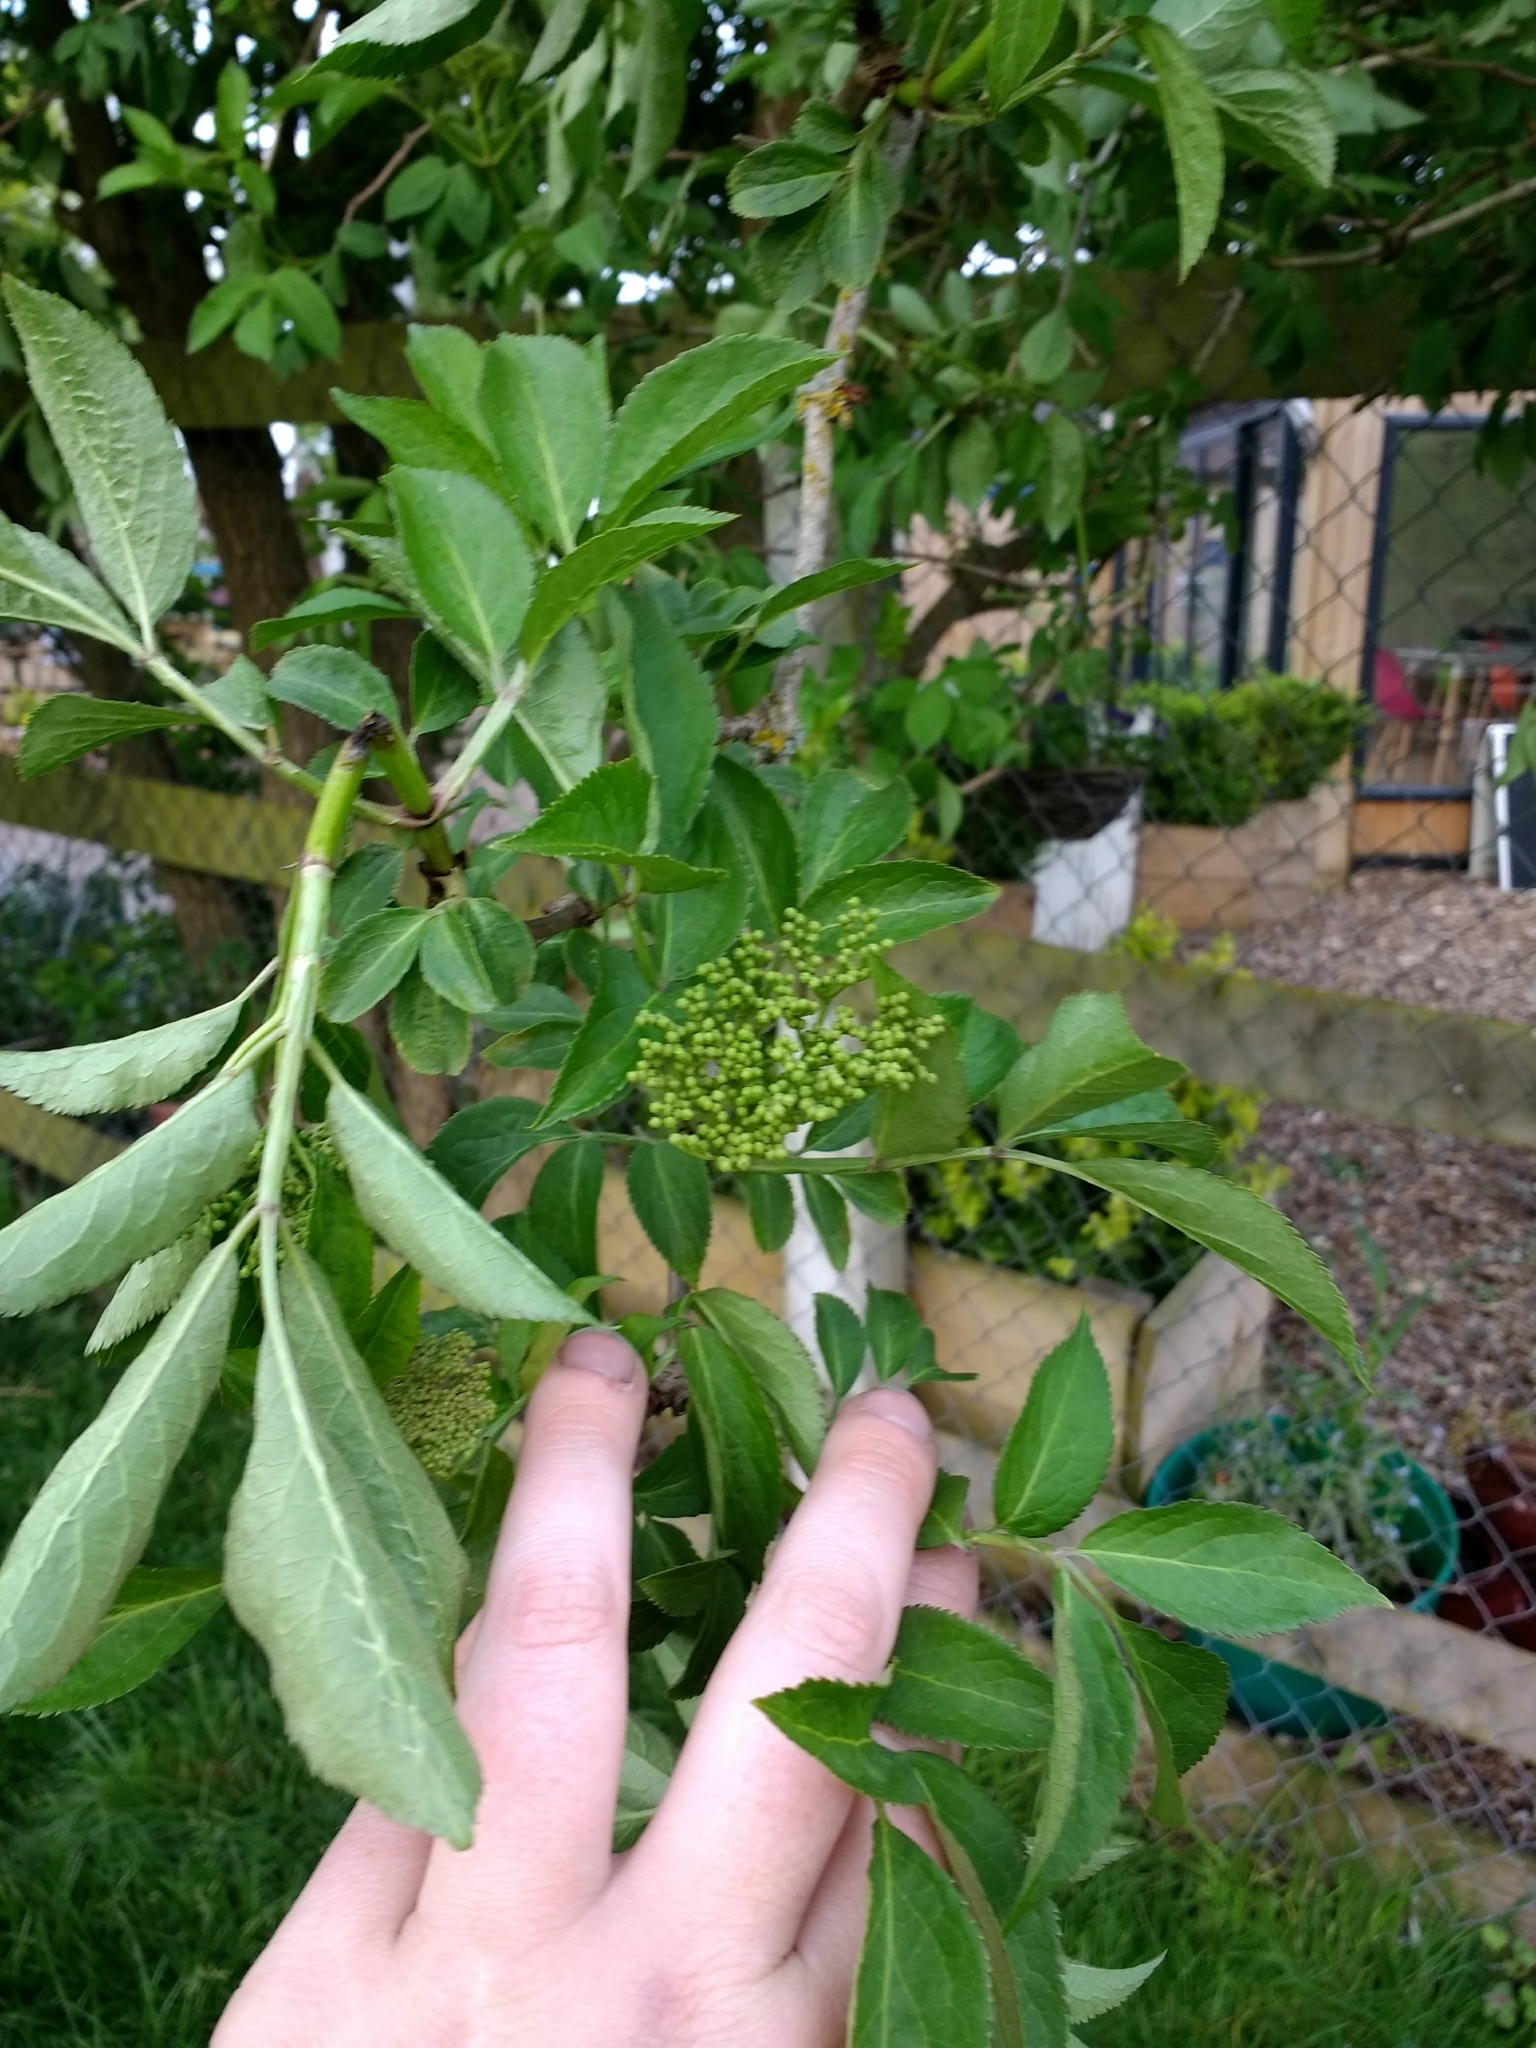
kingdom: Plantae
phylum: Tracheophyta
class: Magnoliopsida
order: Dipsacales
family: Viburnaceae
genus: Sambucus
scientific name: Sambucus nigra
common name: Elder
